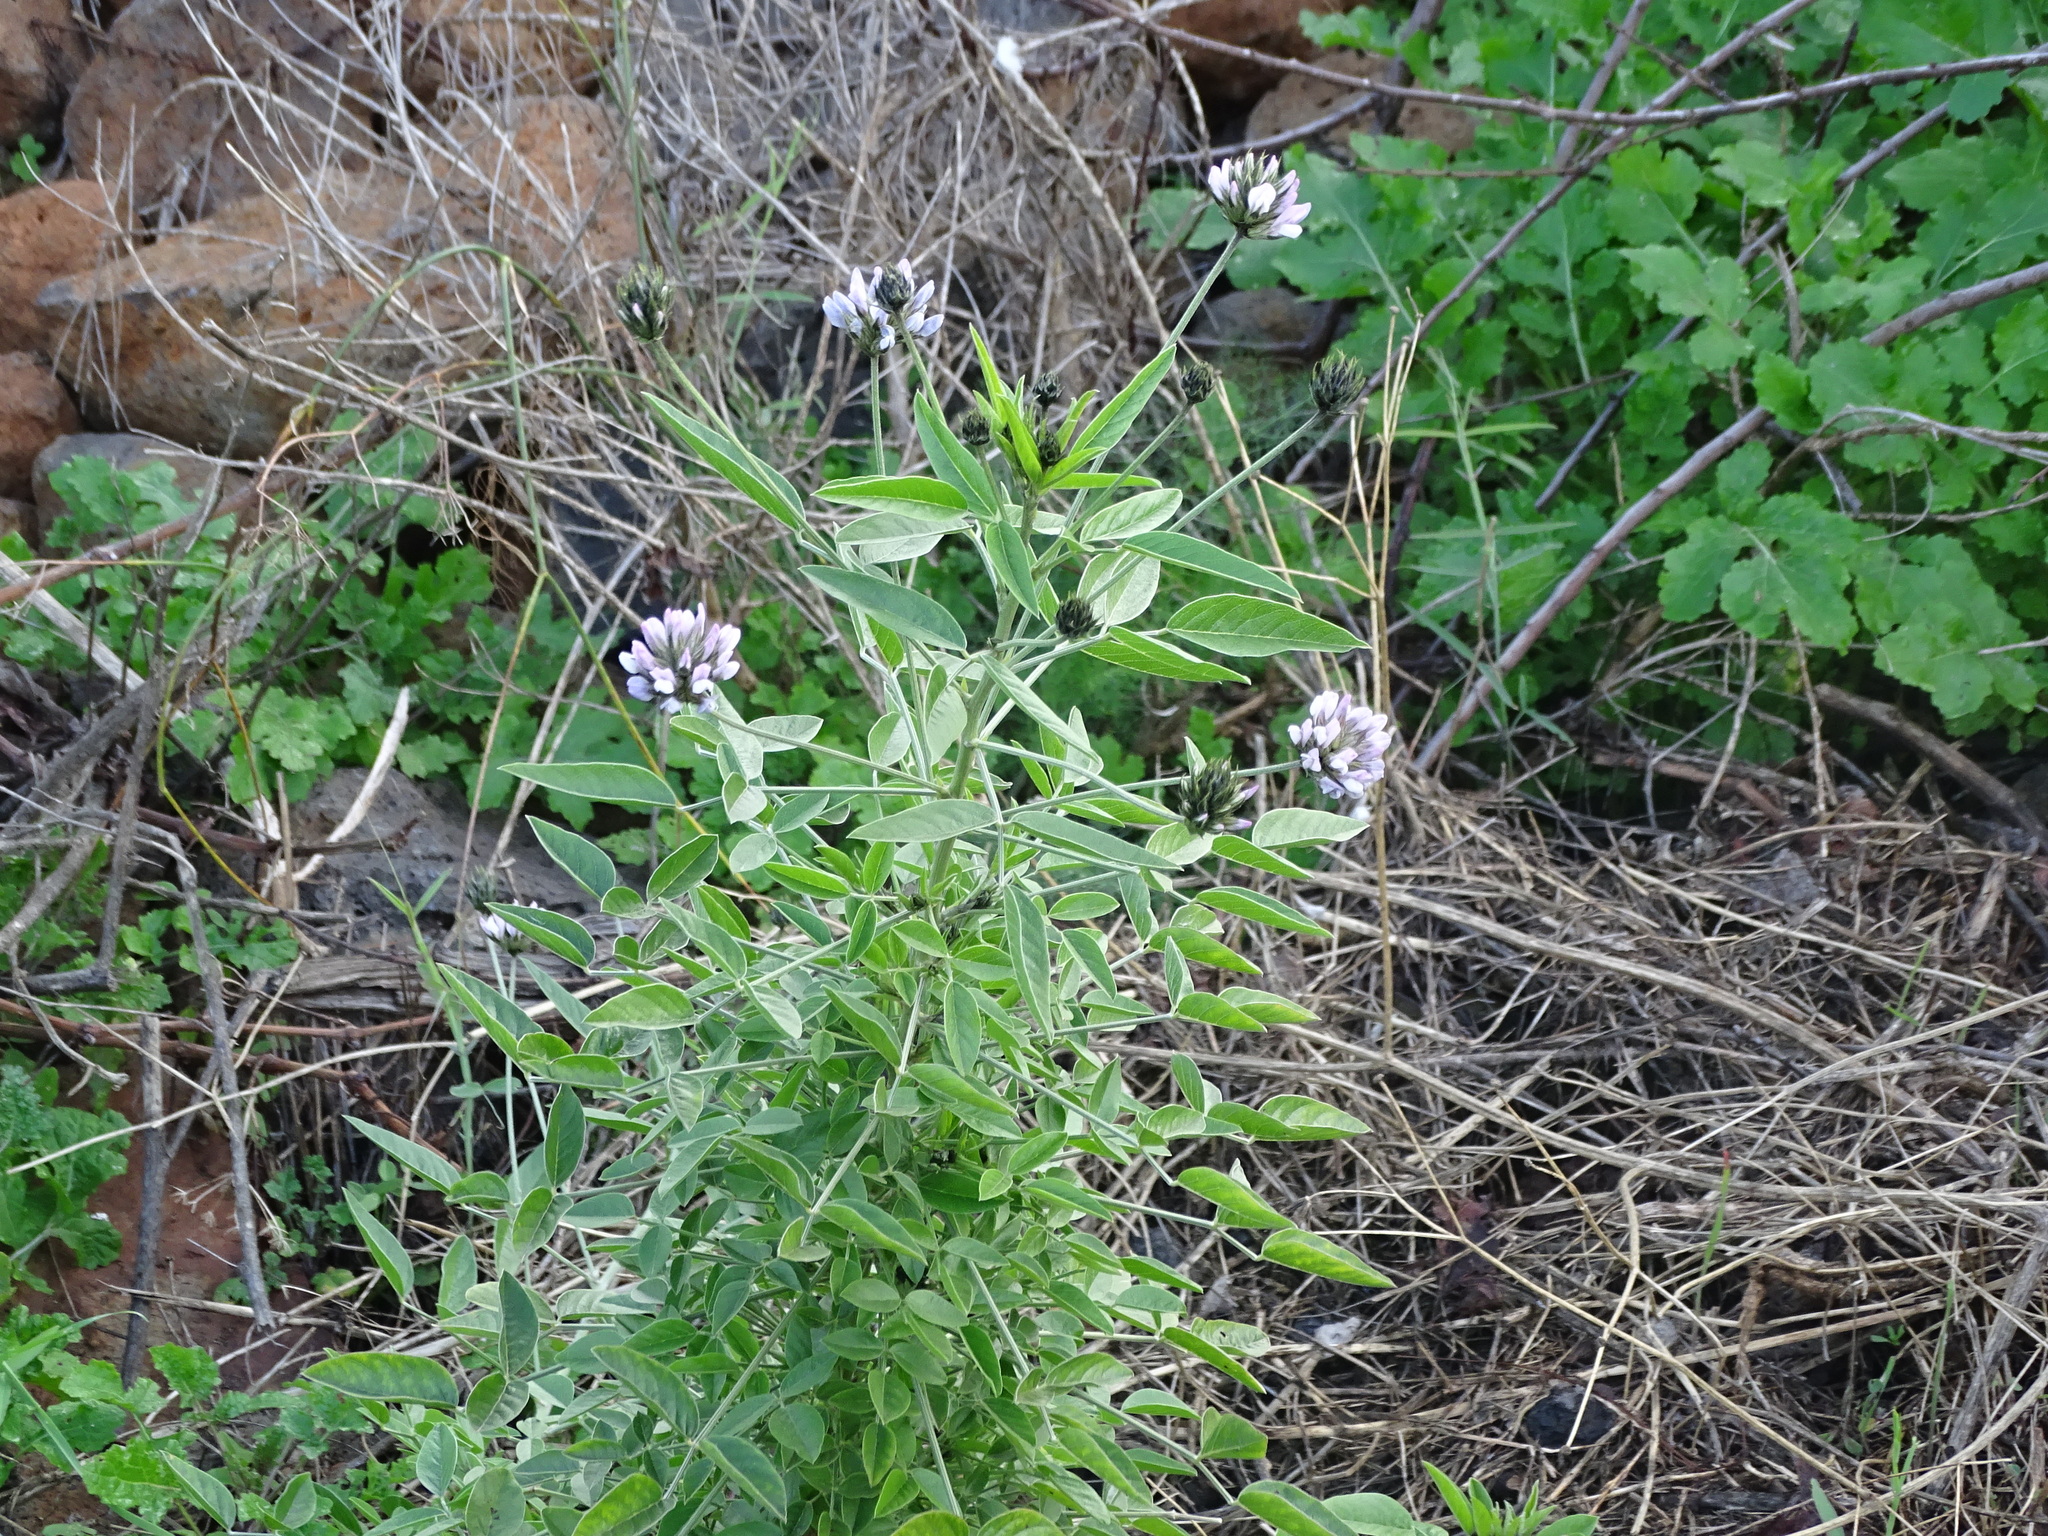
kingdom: Plantae
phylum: Tracheophyta
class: Magnoliopsida
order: Fabales
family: Fabaceae
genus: Bituminaria
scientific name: Bituminaria bituminosa
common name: Arabian pea
